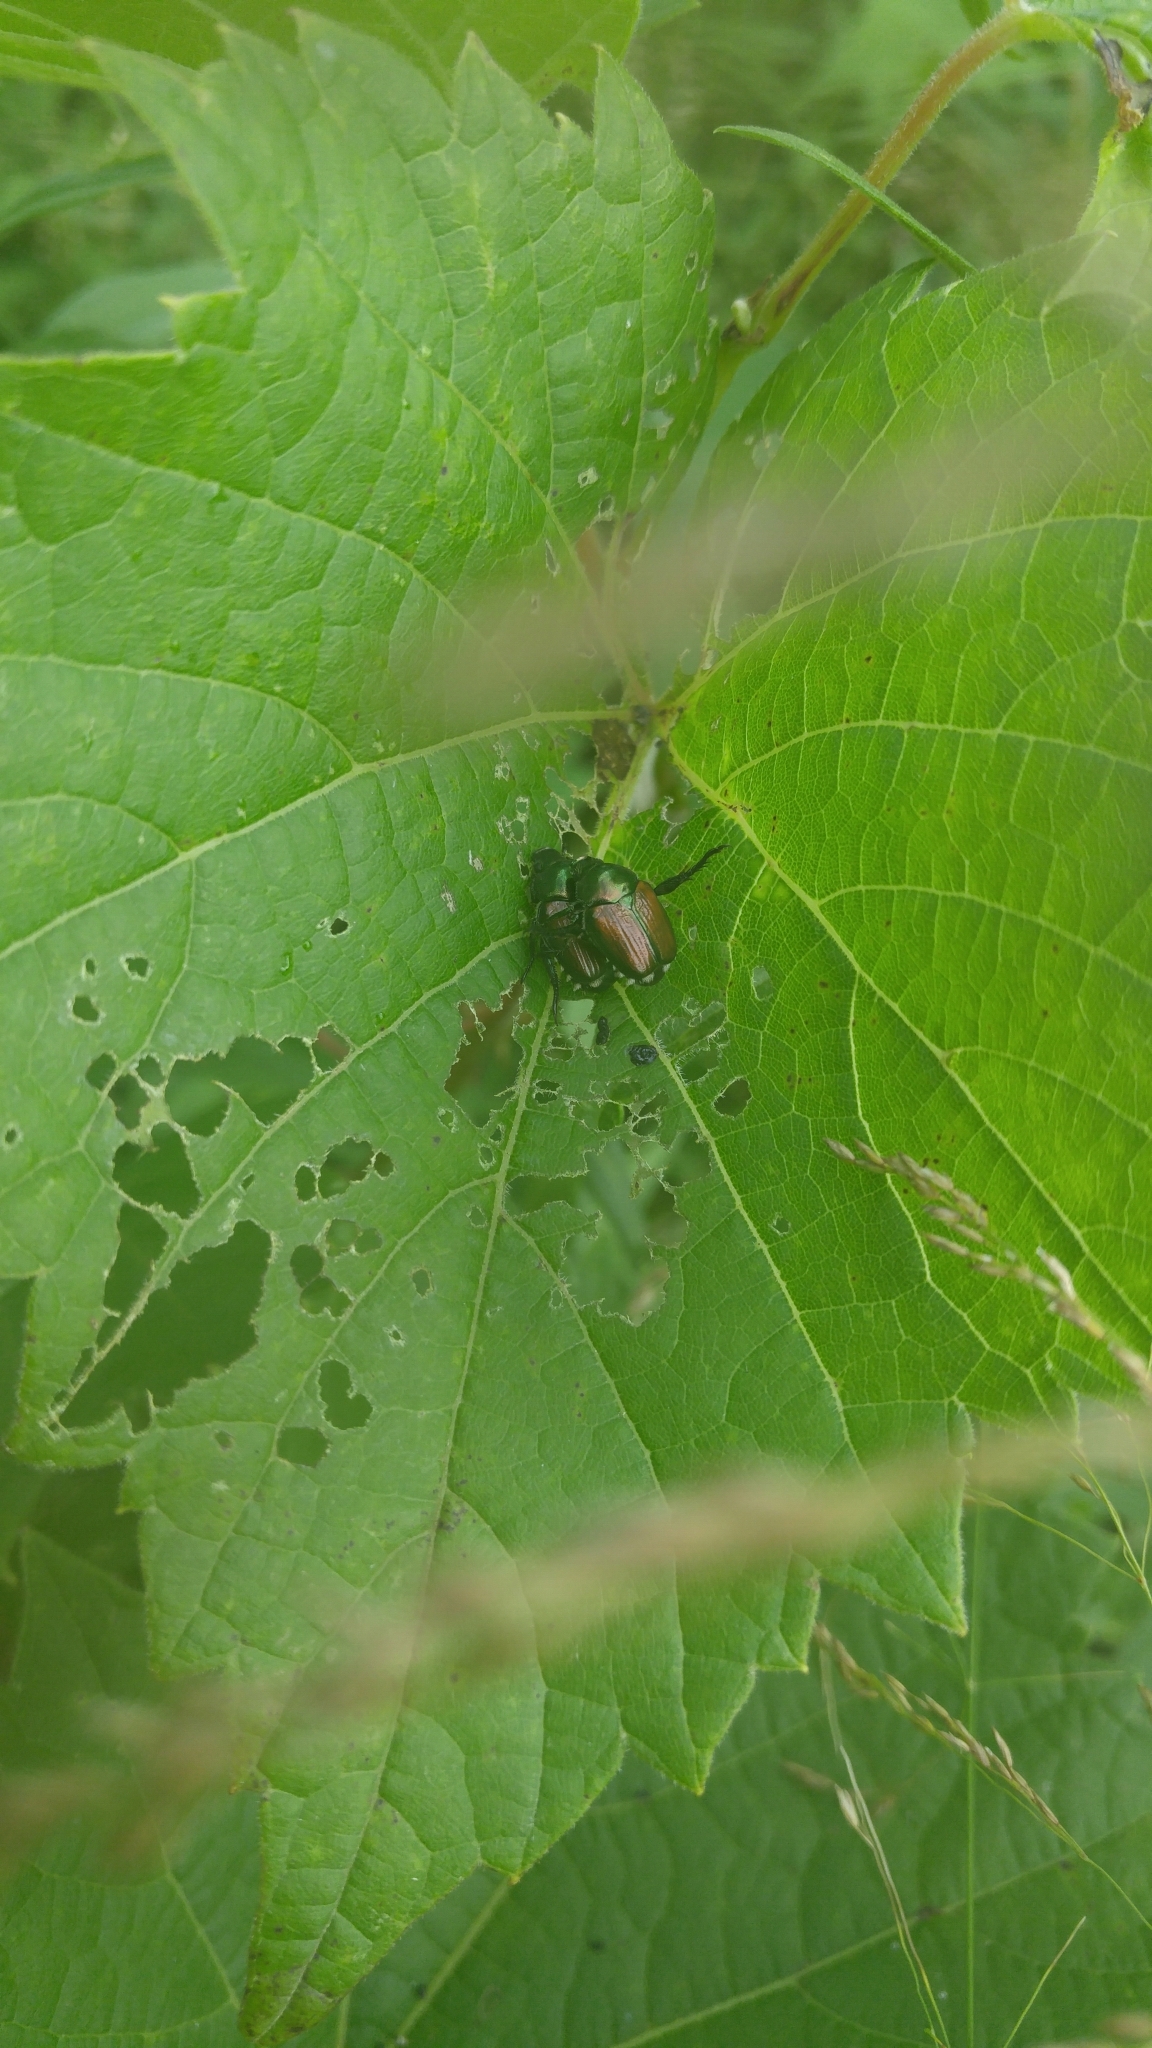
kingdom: Animalia
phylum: Arthropoda
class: Insecta
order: Coleoptera
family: Scarabaeidae
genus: Popillia
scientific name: Popillia japonica
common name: Japanese beetle
